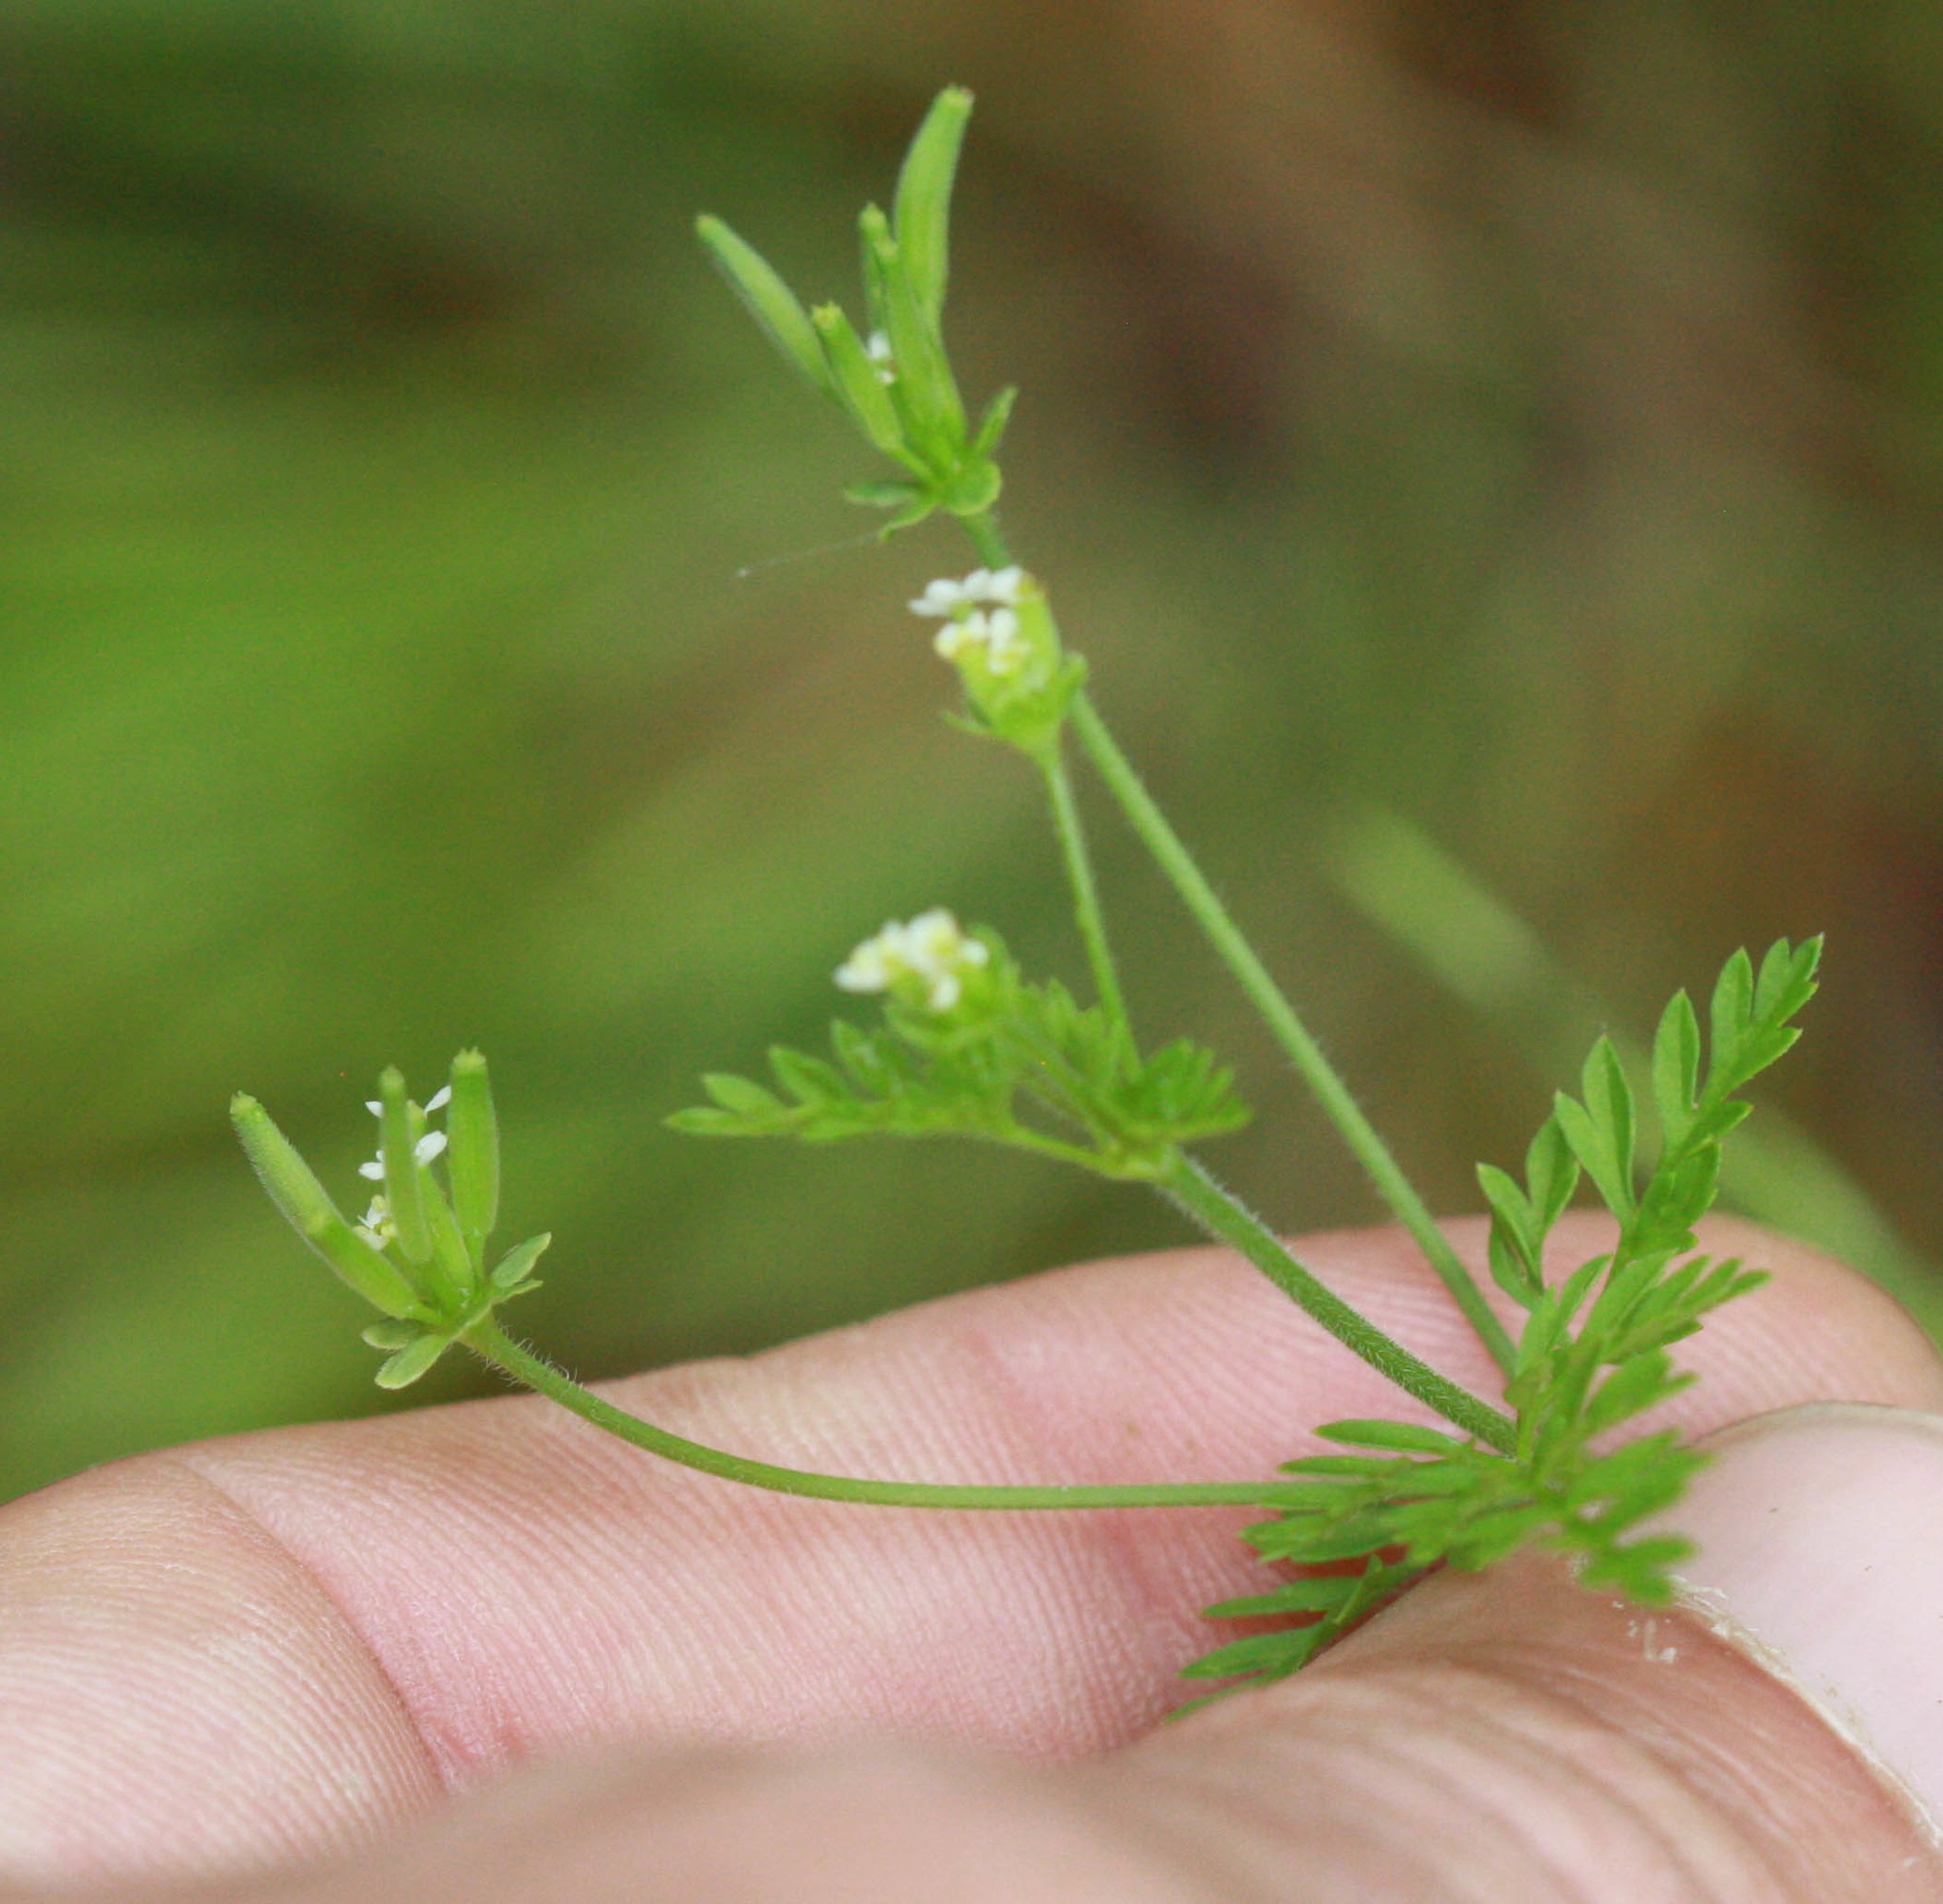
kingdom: Plantae
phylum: Tracheophyta
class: Magnoliopsida
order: Apiales
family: Apiaceae
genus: Chaerophyllum
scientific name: Chaerophyllum tainturieri
